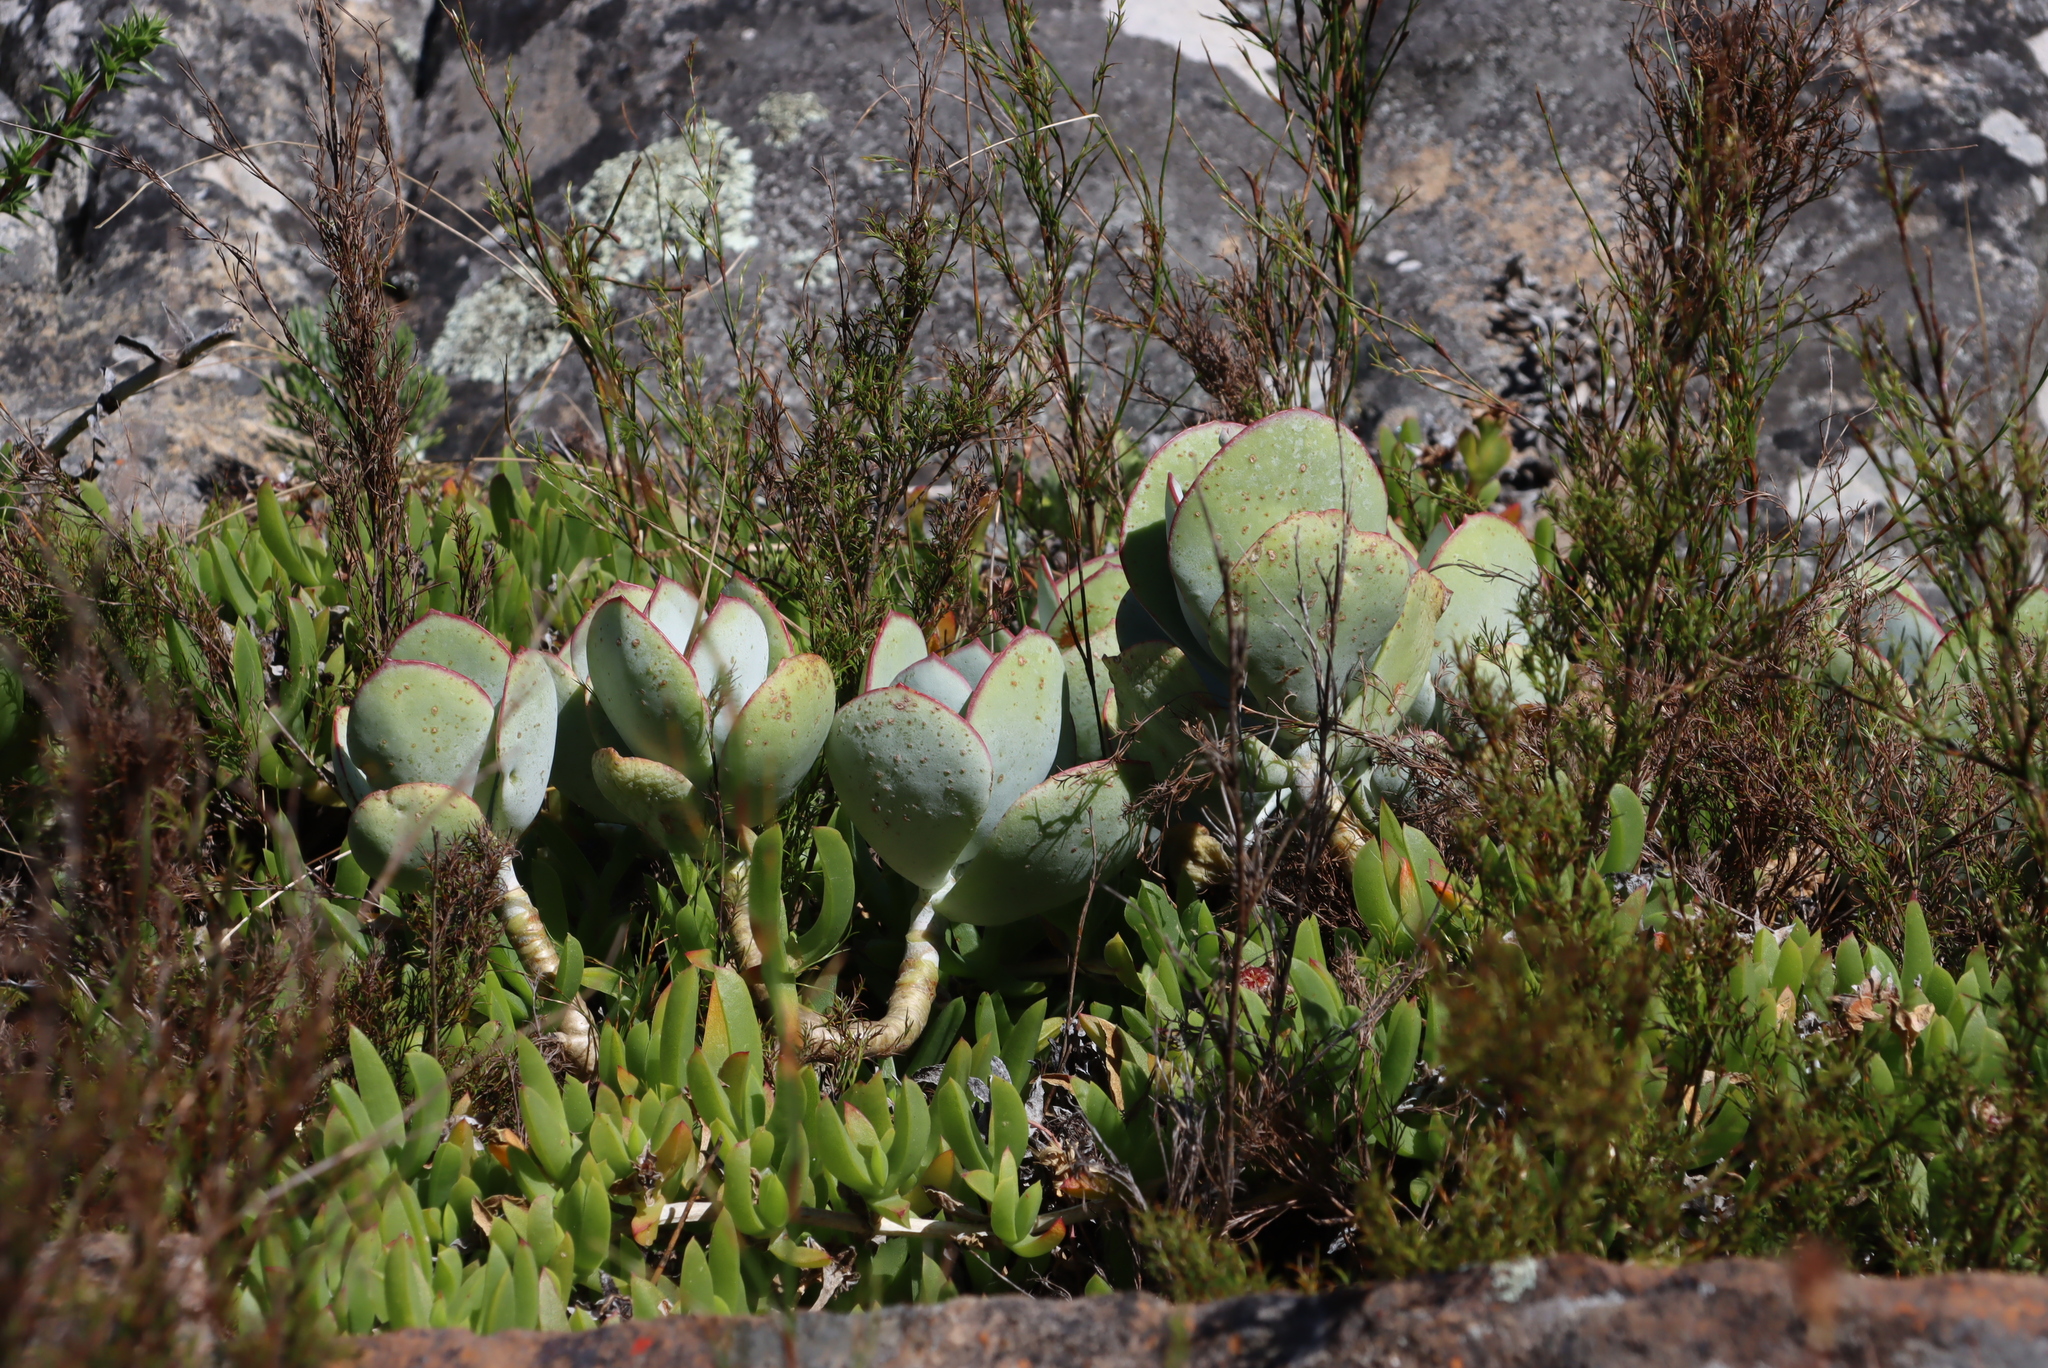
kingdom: Plantae
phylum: Tracheophyta
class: Magnoliopsida
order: Saxifragales
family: Crassulaceae
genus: Cotyledon
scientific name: Cotyledon orbiculata
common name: Pig's ear
